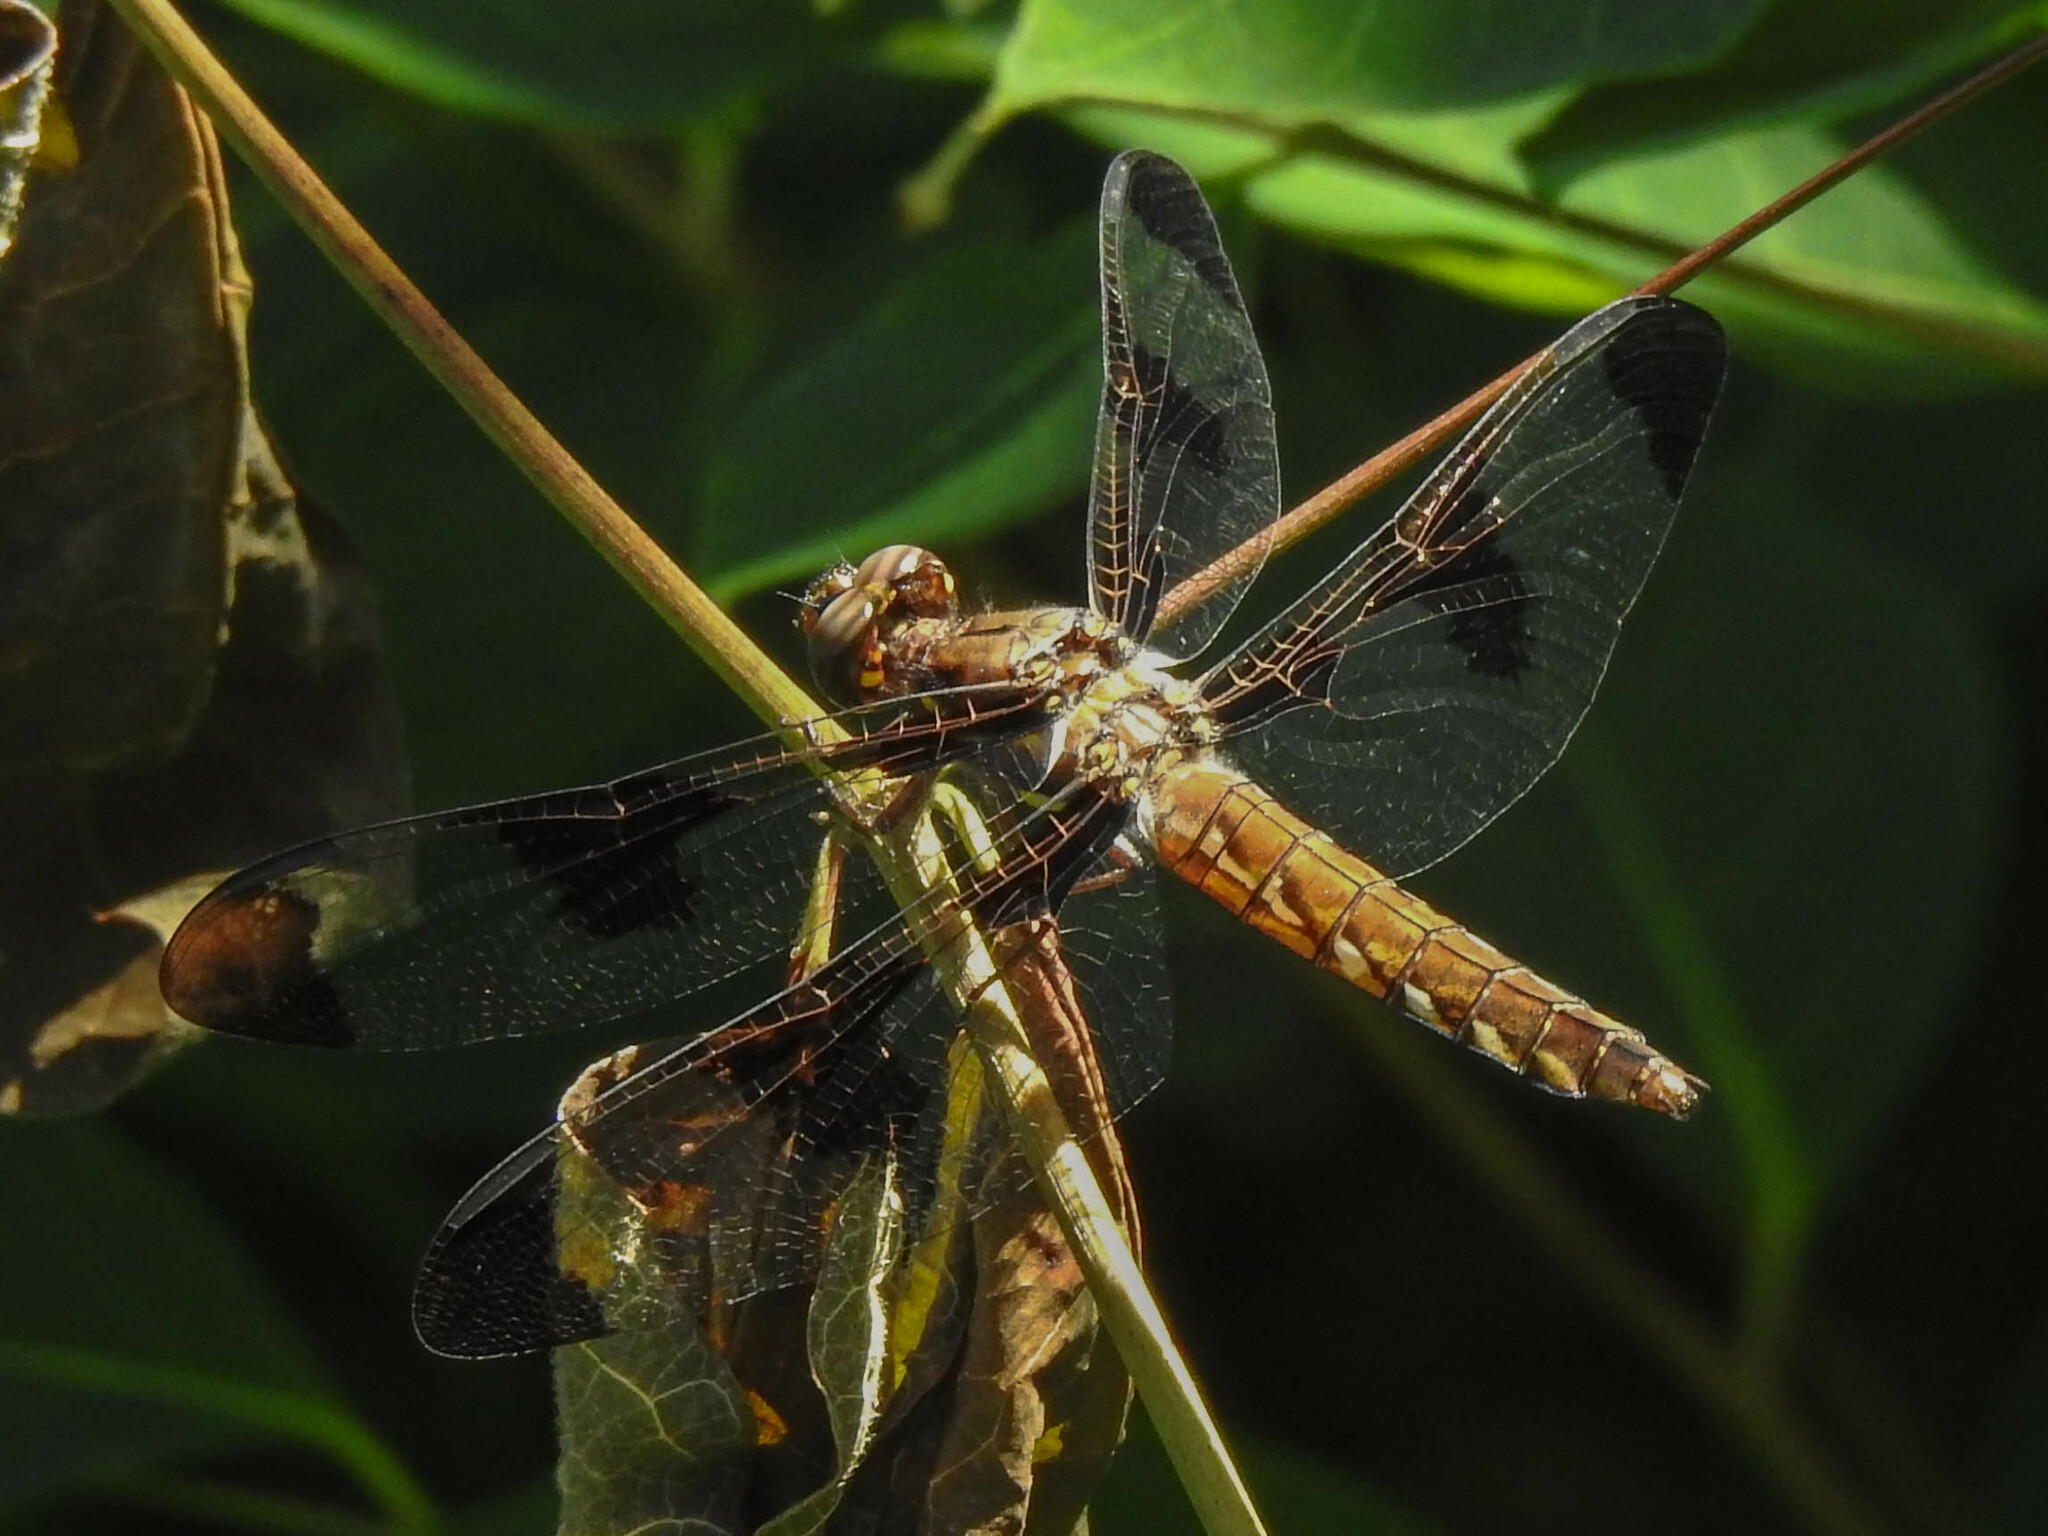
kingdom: Animalia
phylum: Arthropoda
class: Insecta
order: Odonata
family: Libellulidae
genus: Plathemis
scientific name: Plathemis lydia
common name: Common whitetail
